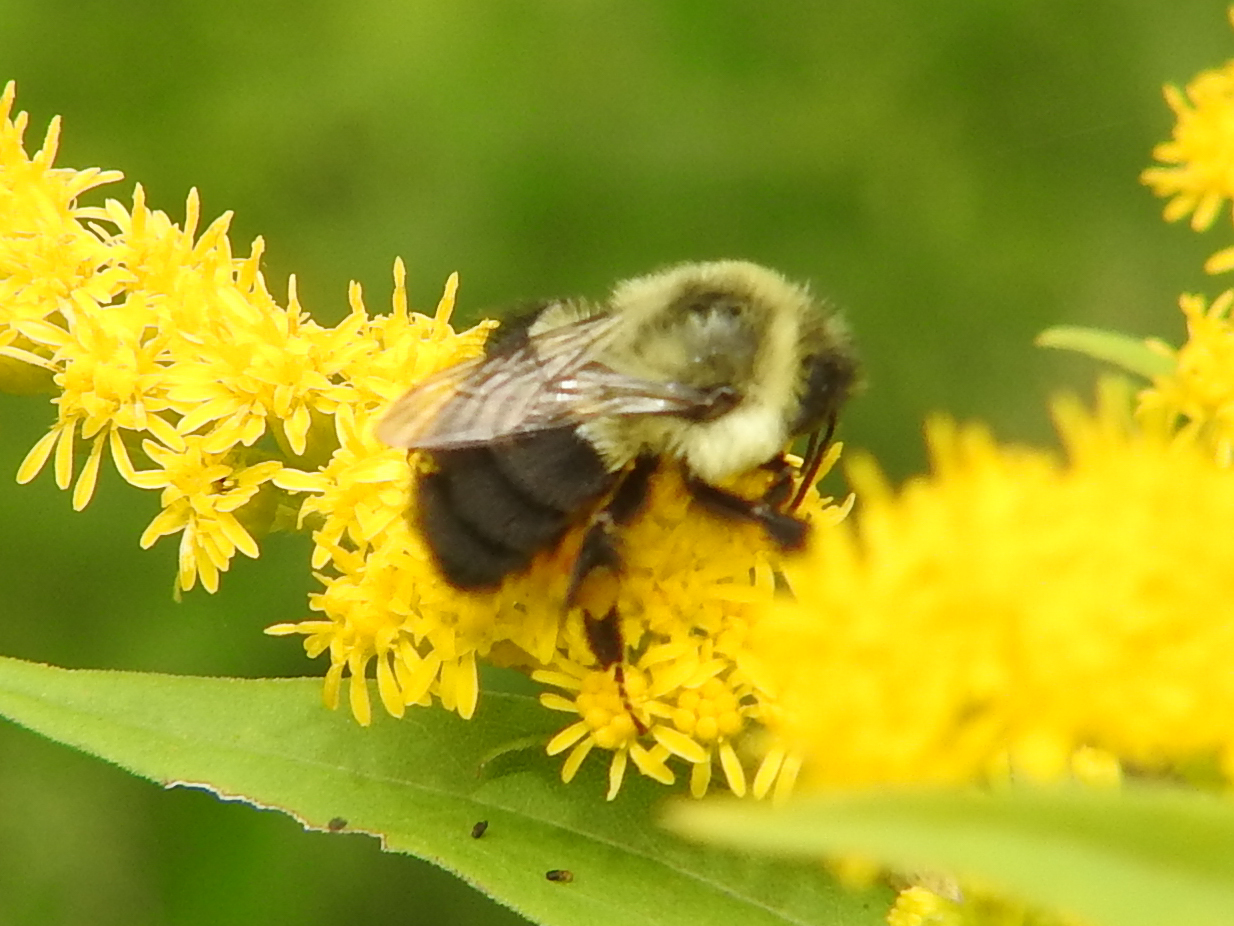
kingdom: Animalia
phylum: Arthropoda
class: Insecta
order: Hymenoptera
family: Apidae
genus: Bombus
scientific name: Bombus impatiens
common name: Common eastern bumble bee
